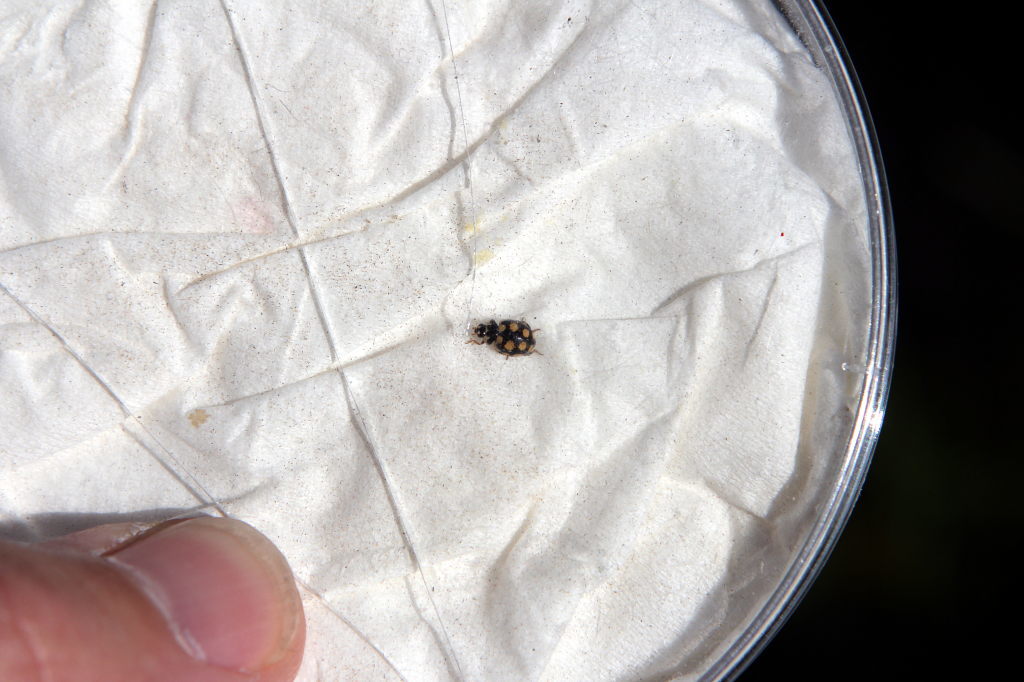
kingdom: Animalia
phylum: Arthropoda
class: Insecta
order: Coleoptera
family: Coccinellidae
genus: Coccinula
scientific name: Coccinula quatuordecimpustulata
